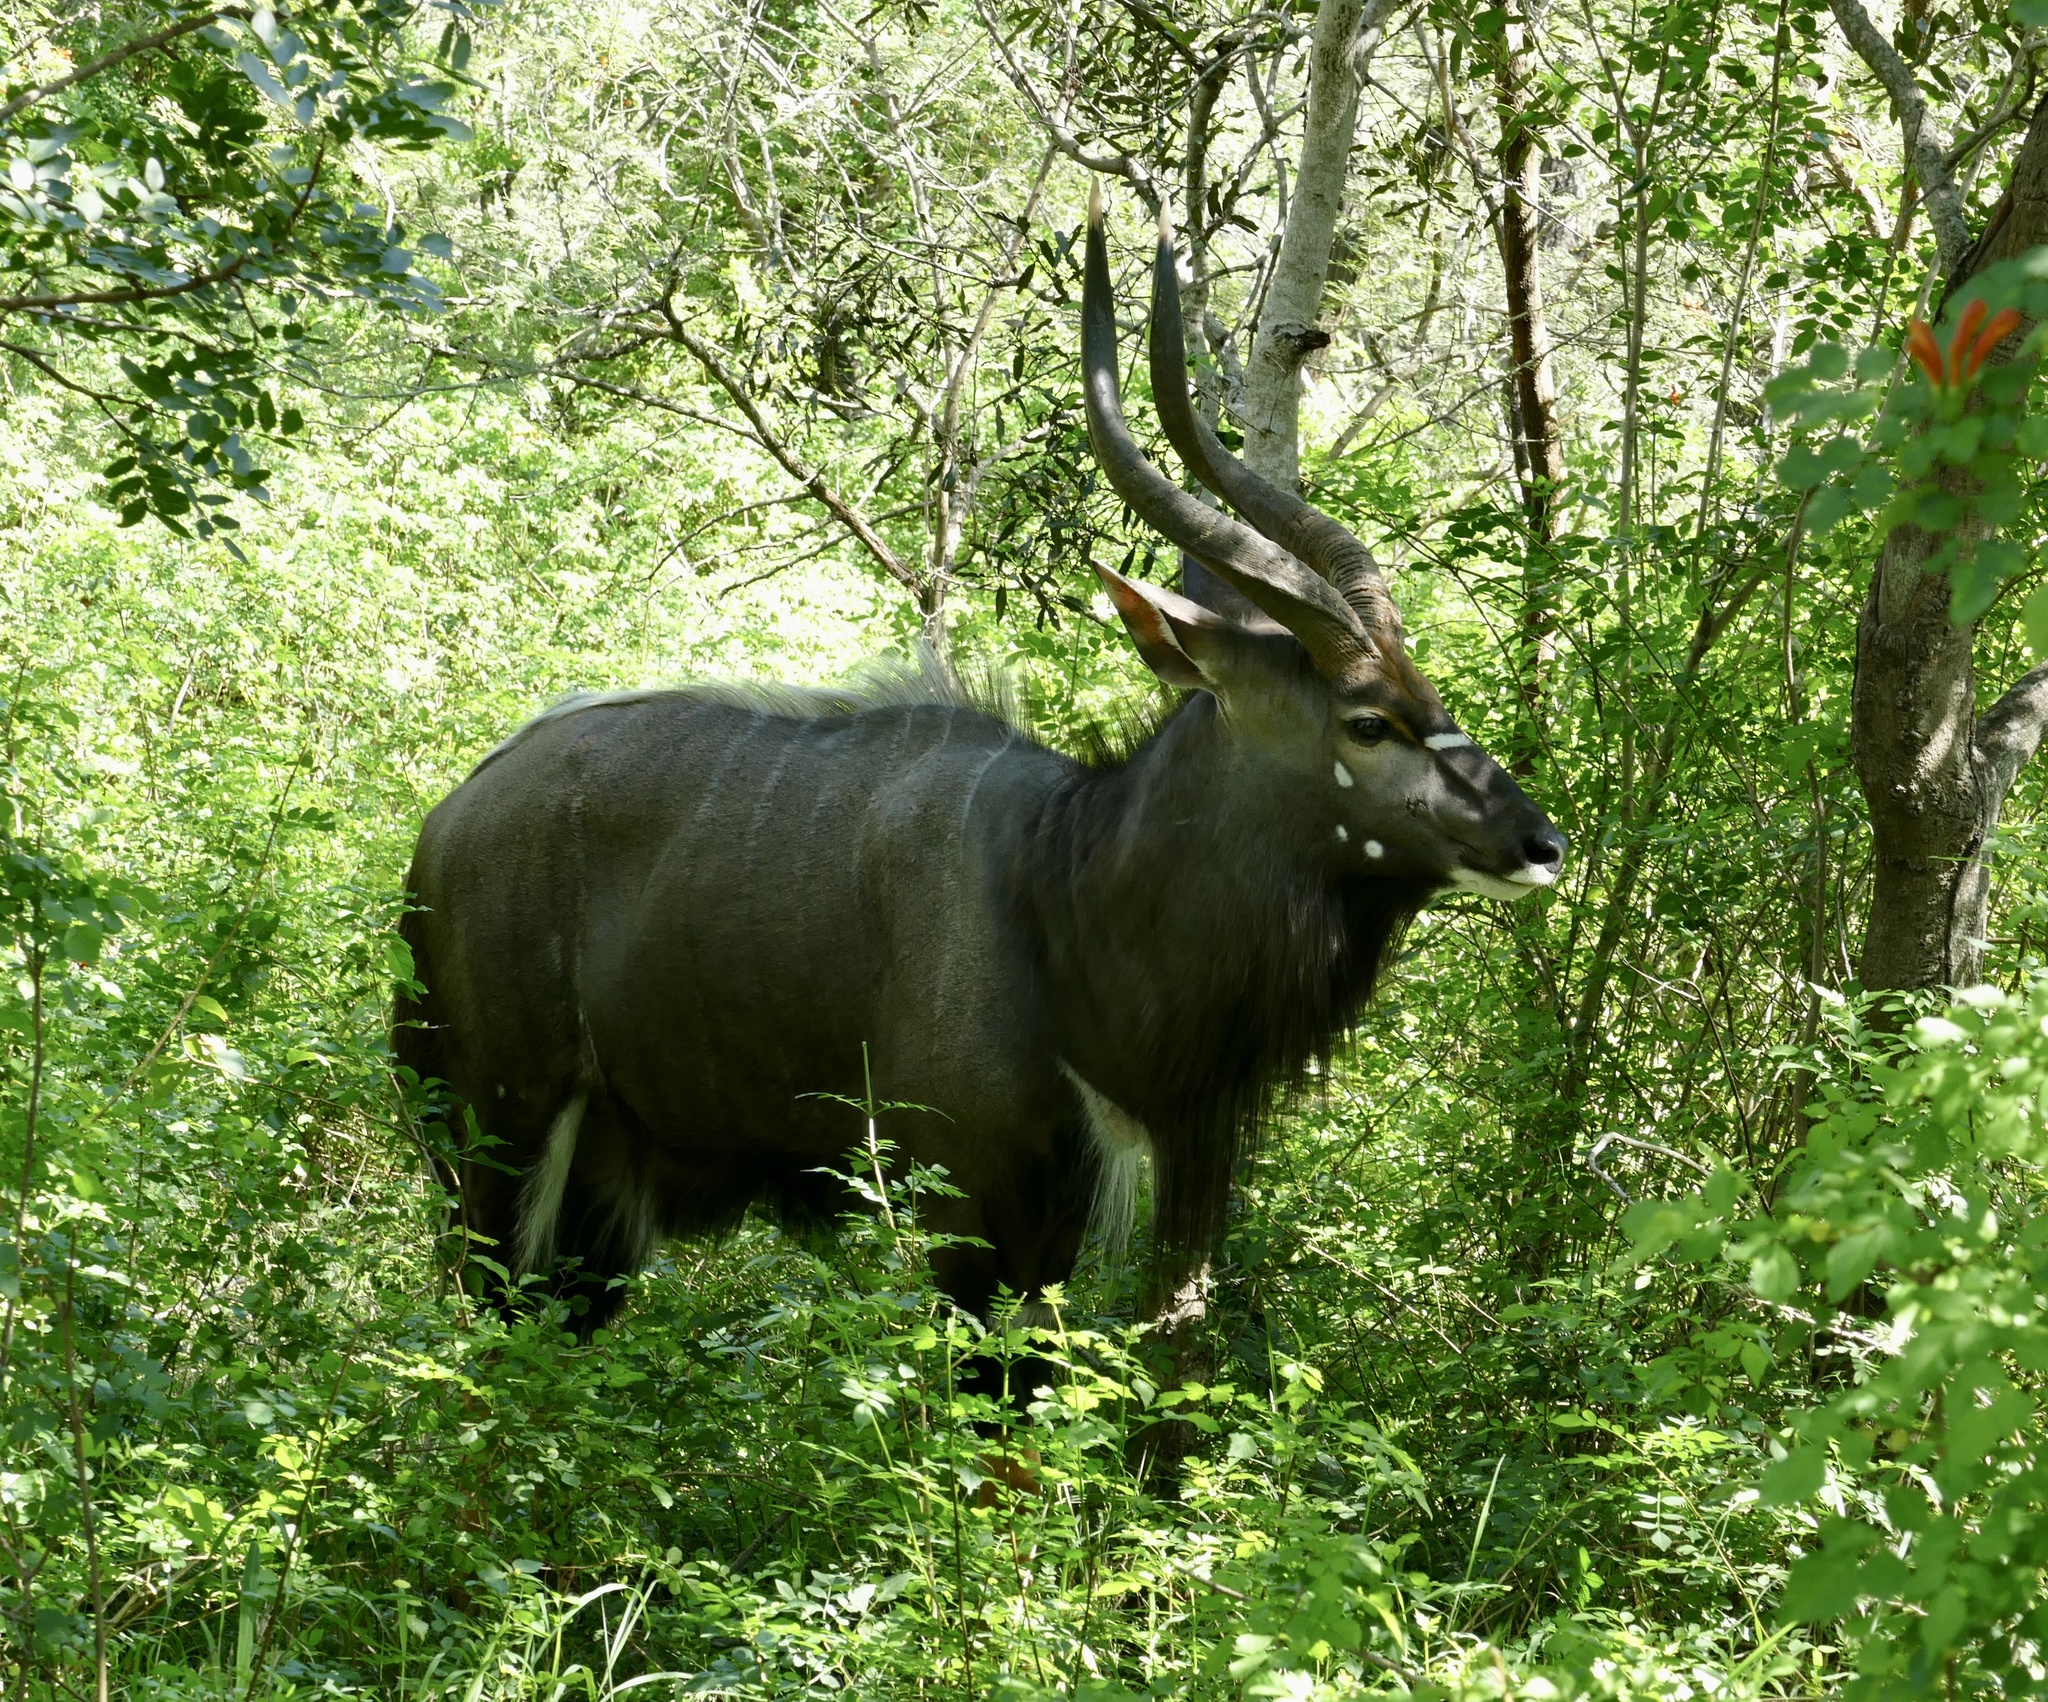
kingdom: Animalia
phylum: Chordata
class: Mammalia
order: Artiodactyla
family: Bovidae
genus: Tragelaphus
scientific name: Tragelaphus angasii
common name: Nyala
